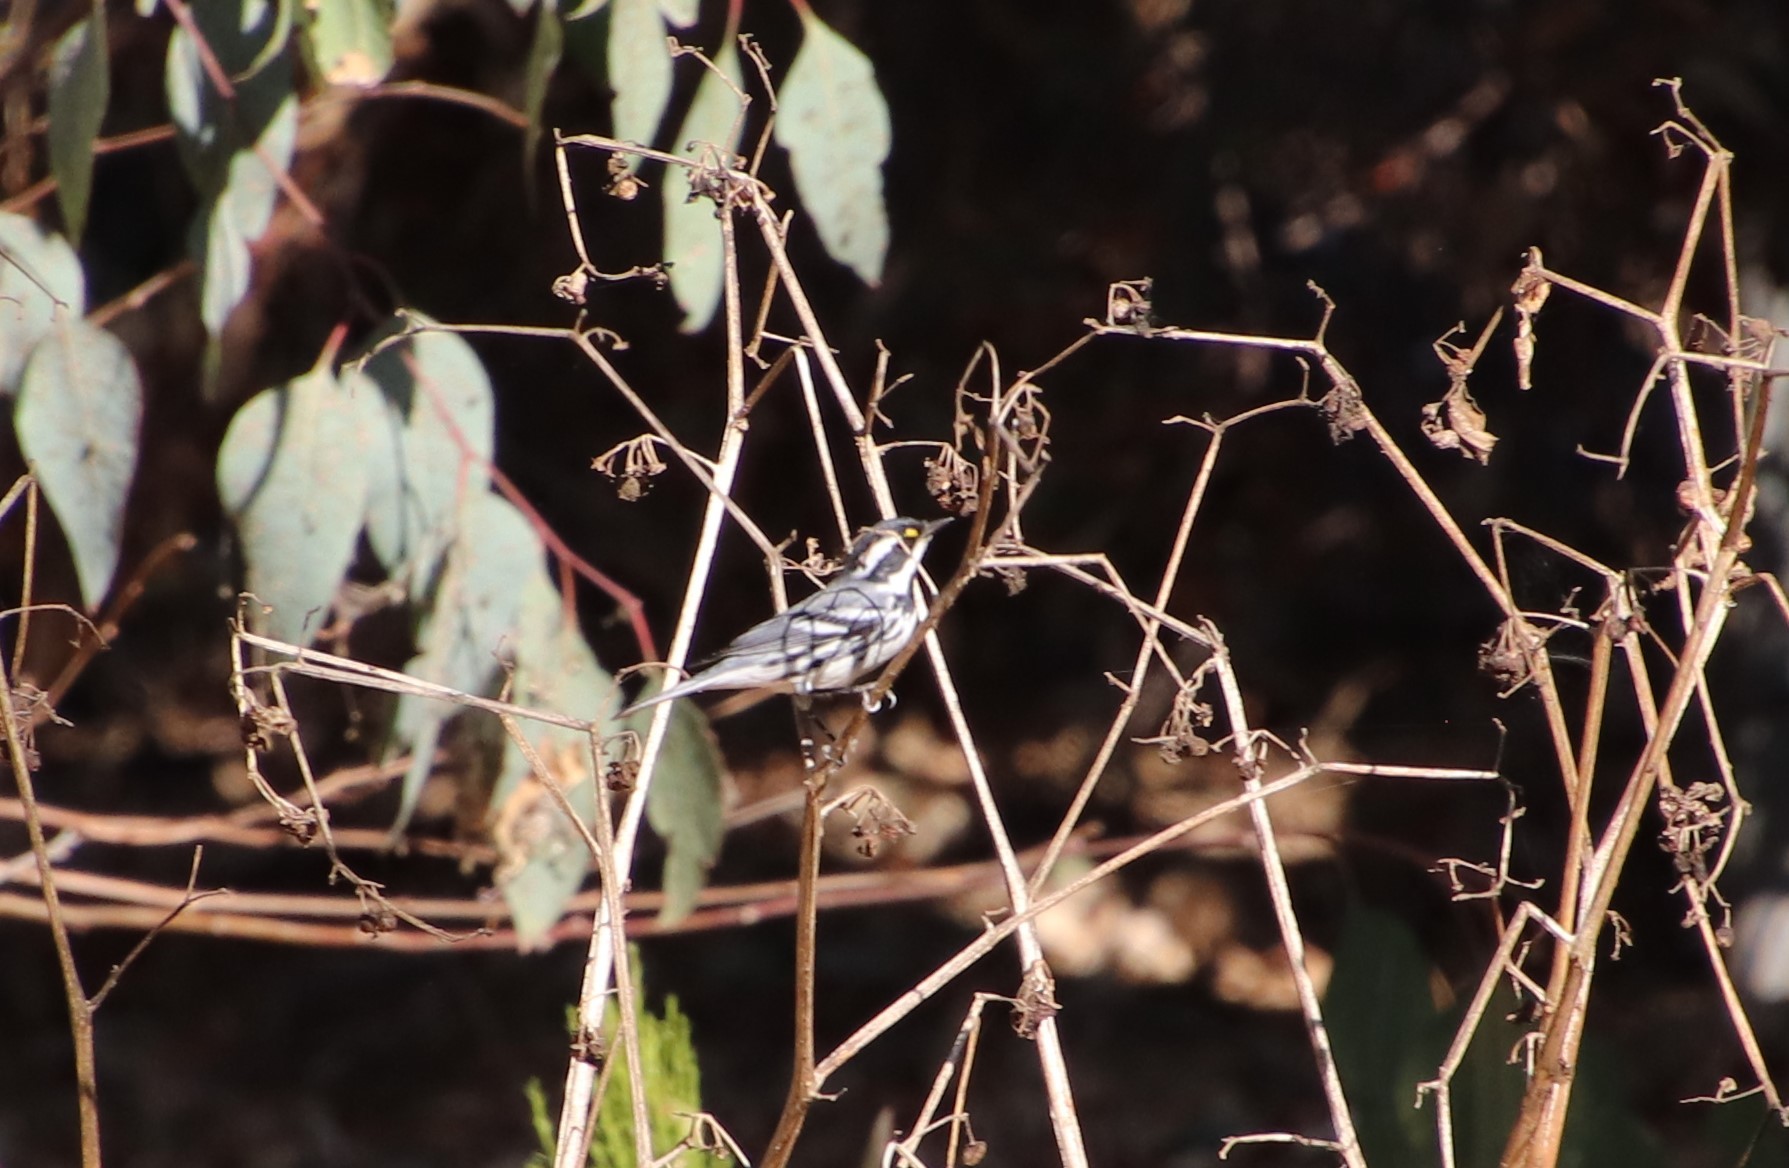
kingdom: Animalia
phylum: Chordata
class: Aves
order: Passeriformes
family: Parulidae
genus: Setophaga
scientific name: Setophaga nigrescens
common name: Black-throated gray warbler
